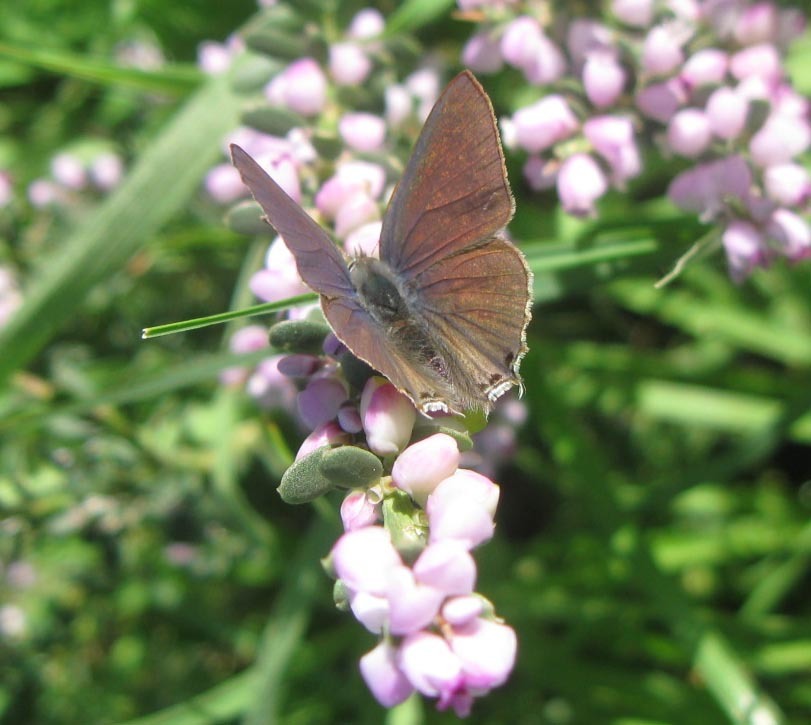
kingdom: Animalia
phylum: Arthropoda
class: Insecta
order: Lepidoptera
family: Lycaenidae
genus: Anthene
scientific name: Anthene definita
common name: Common ciliate blue
